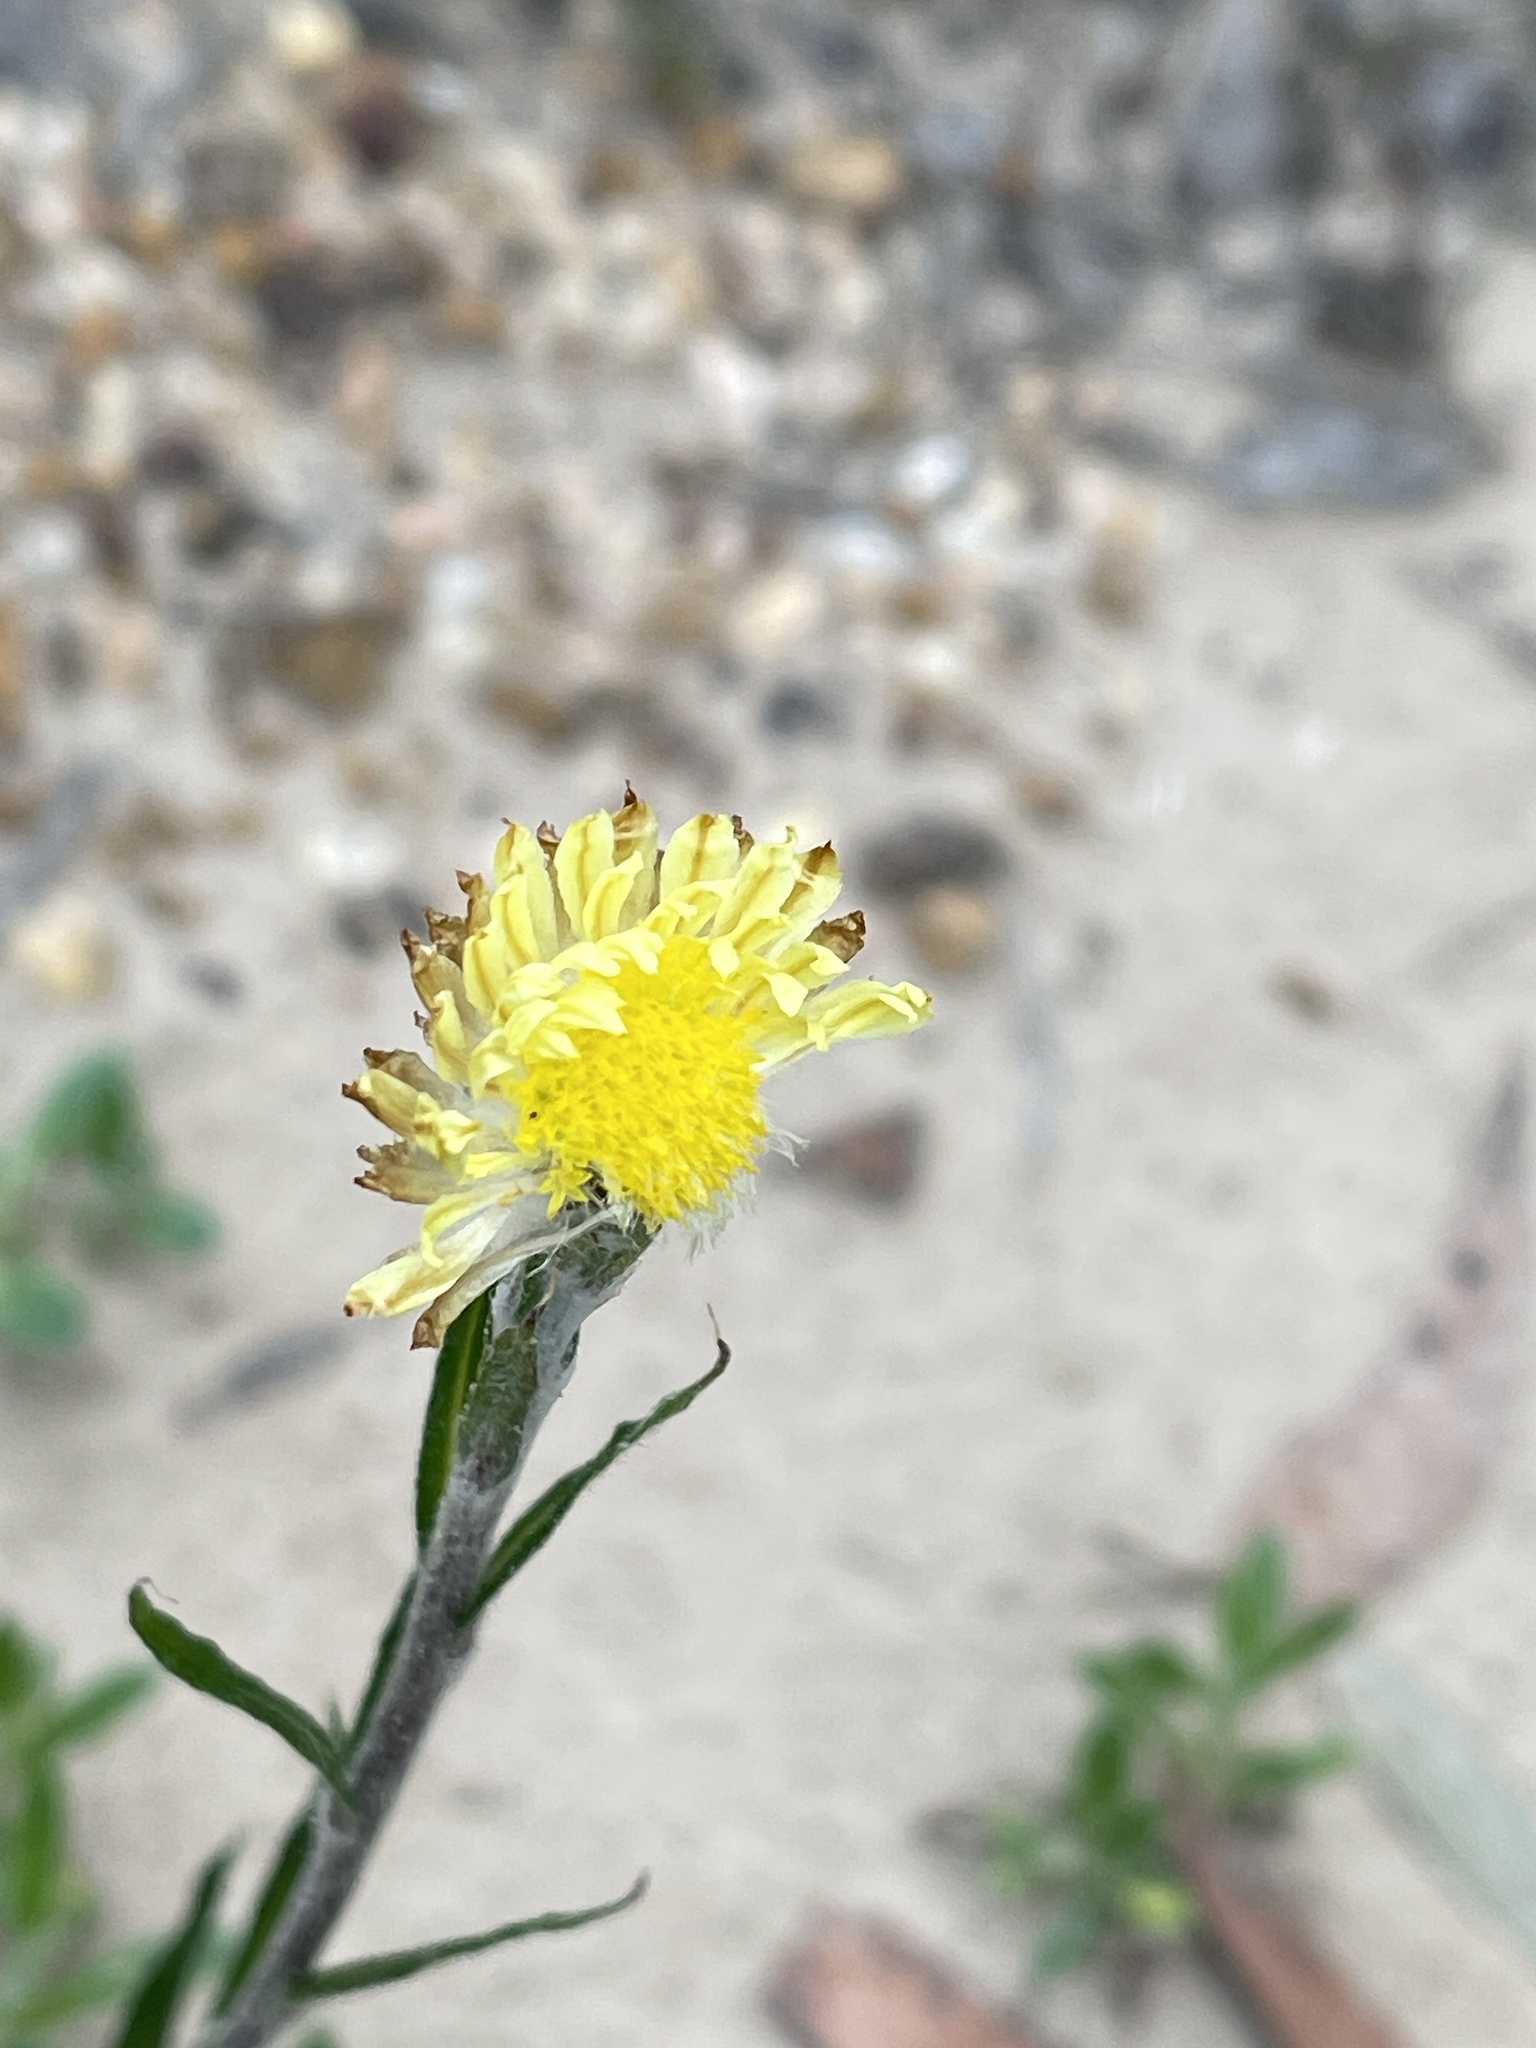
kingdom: Plantae
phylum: Tracheophyta
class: Magnoliopsida
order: Asterales
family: Asteraceae
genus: Coronidium
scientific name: Coronidium scorpioides
